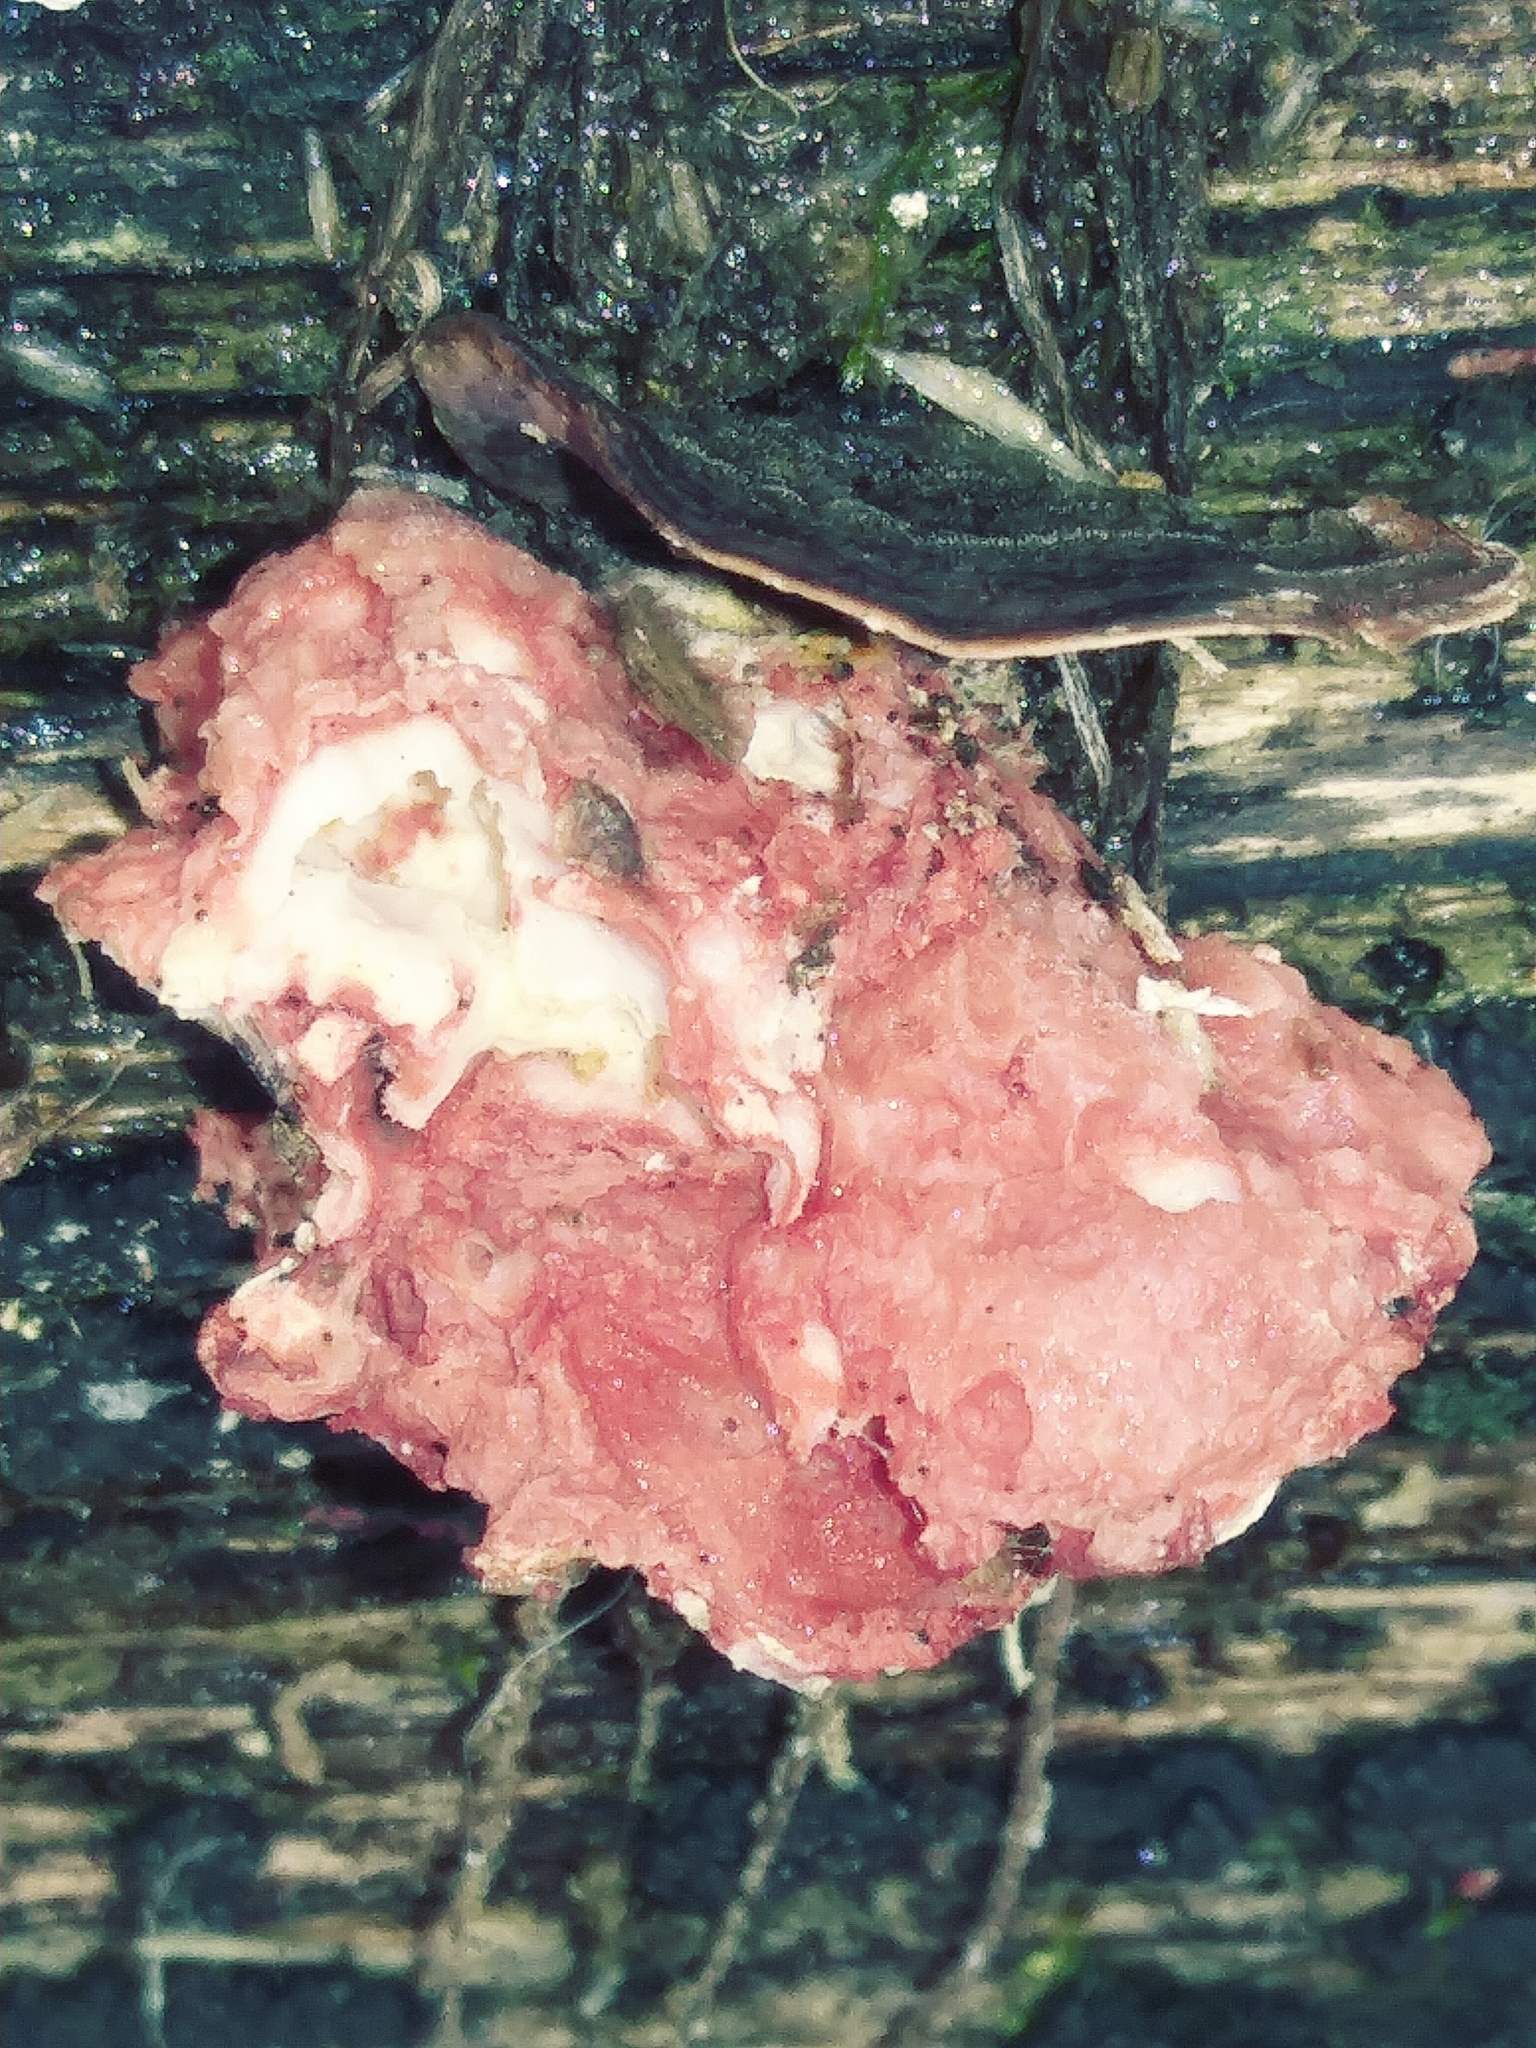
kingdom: Fungi
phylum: Basidiomycota
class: Agaricomycetes
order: Polyporales
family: Irpicaceae
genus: Byssomerulius
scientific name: Byssomerulius incarnatus
